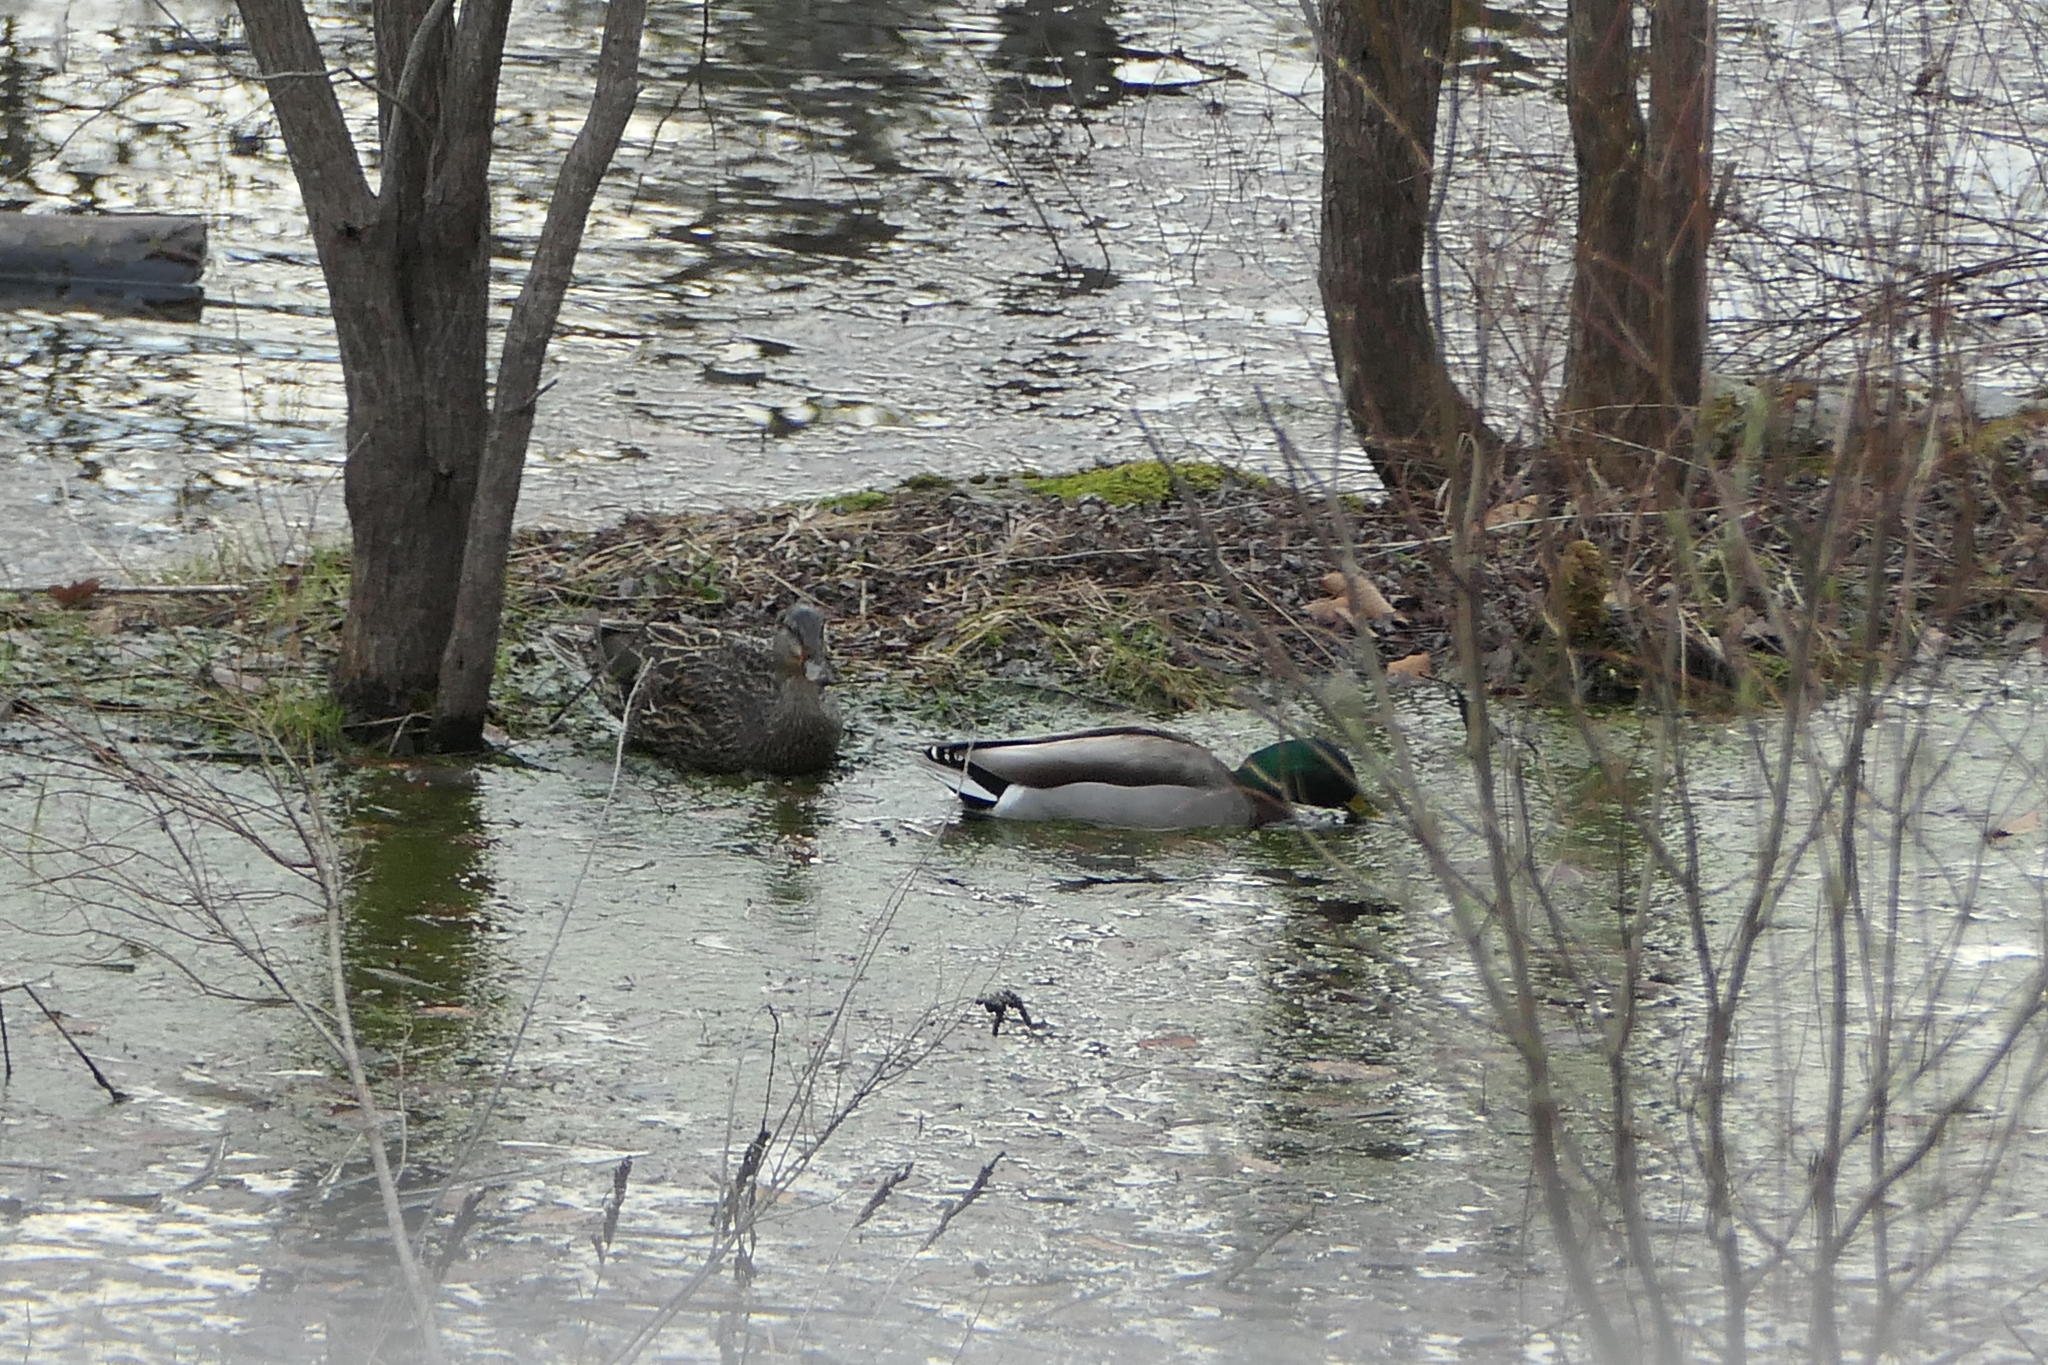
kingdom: Animalia
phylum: Chordata
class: Aves
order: Anseriformes
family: Anatidae
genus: Anas
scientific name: Anas platyrhynchos
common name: Mallard
